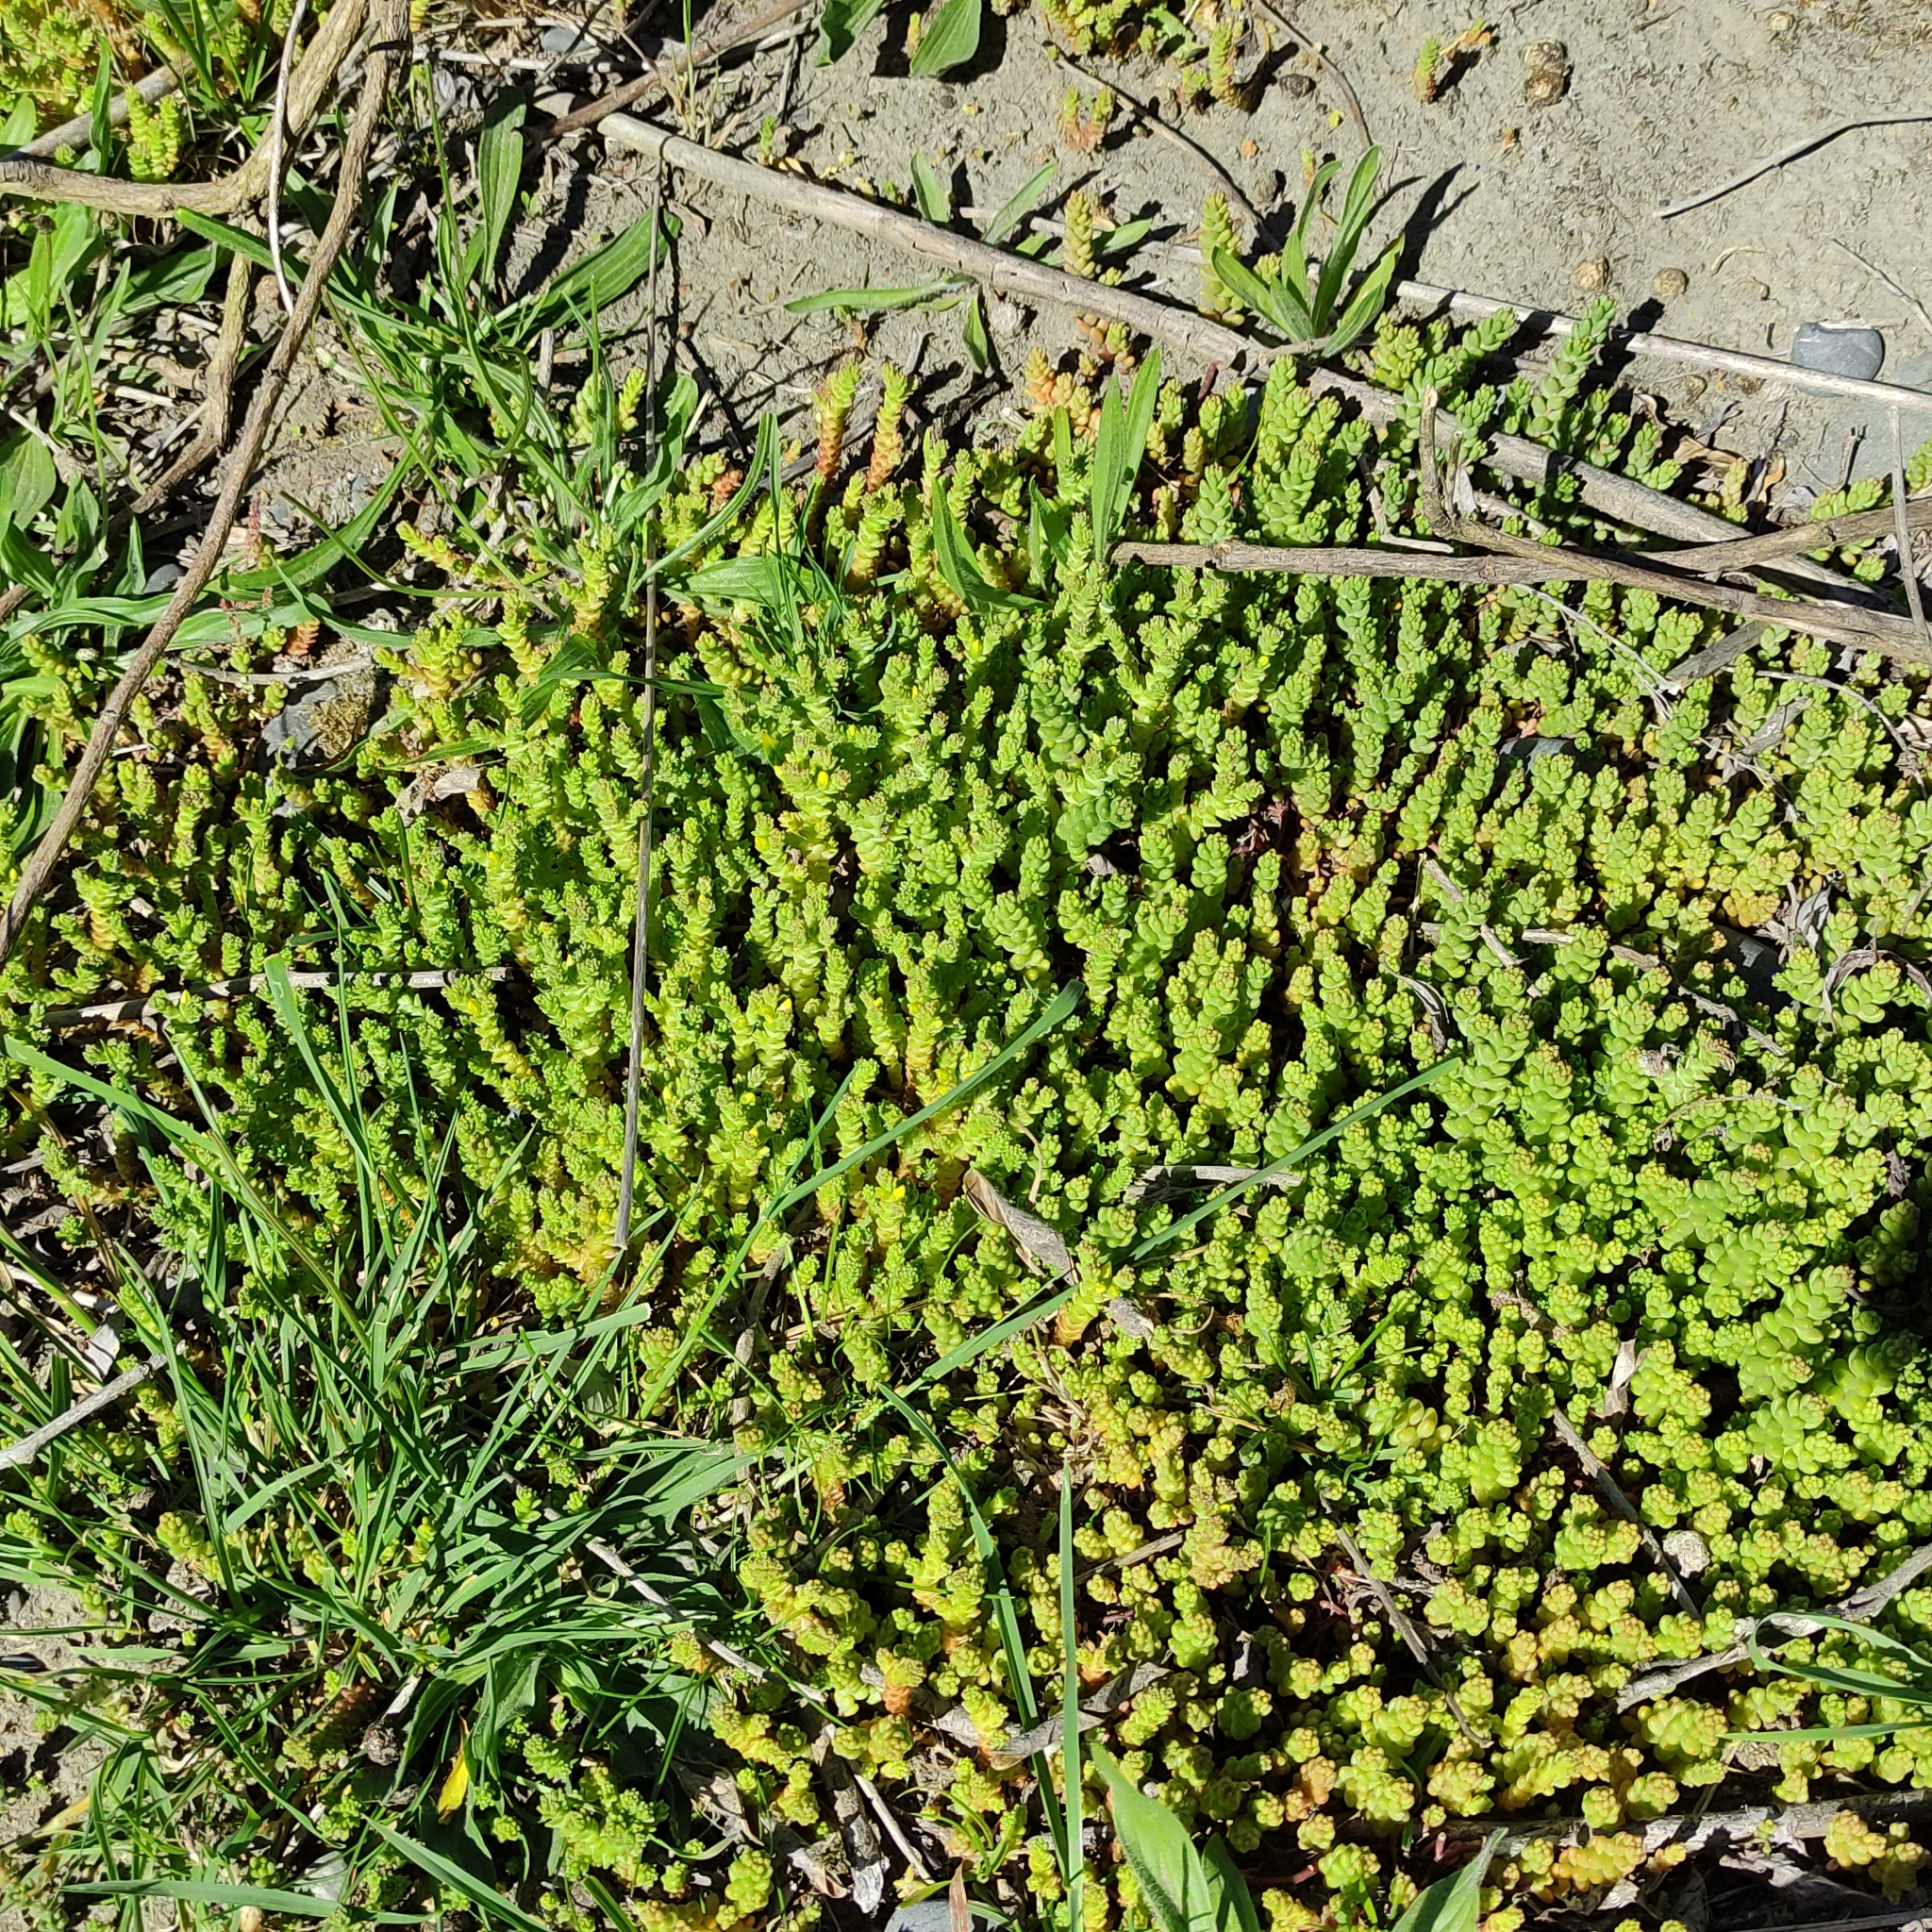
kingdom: Plantae
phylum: Tracheophyta
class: Magnoliopsida
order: Saxifragales
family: Crassulaceae
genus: Sedum
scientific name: Sedum acre
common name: Biting stonecrop
